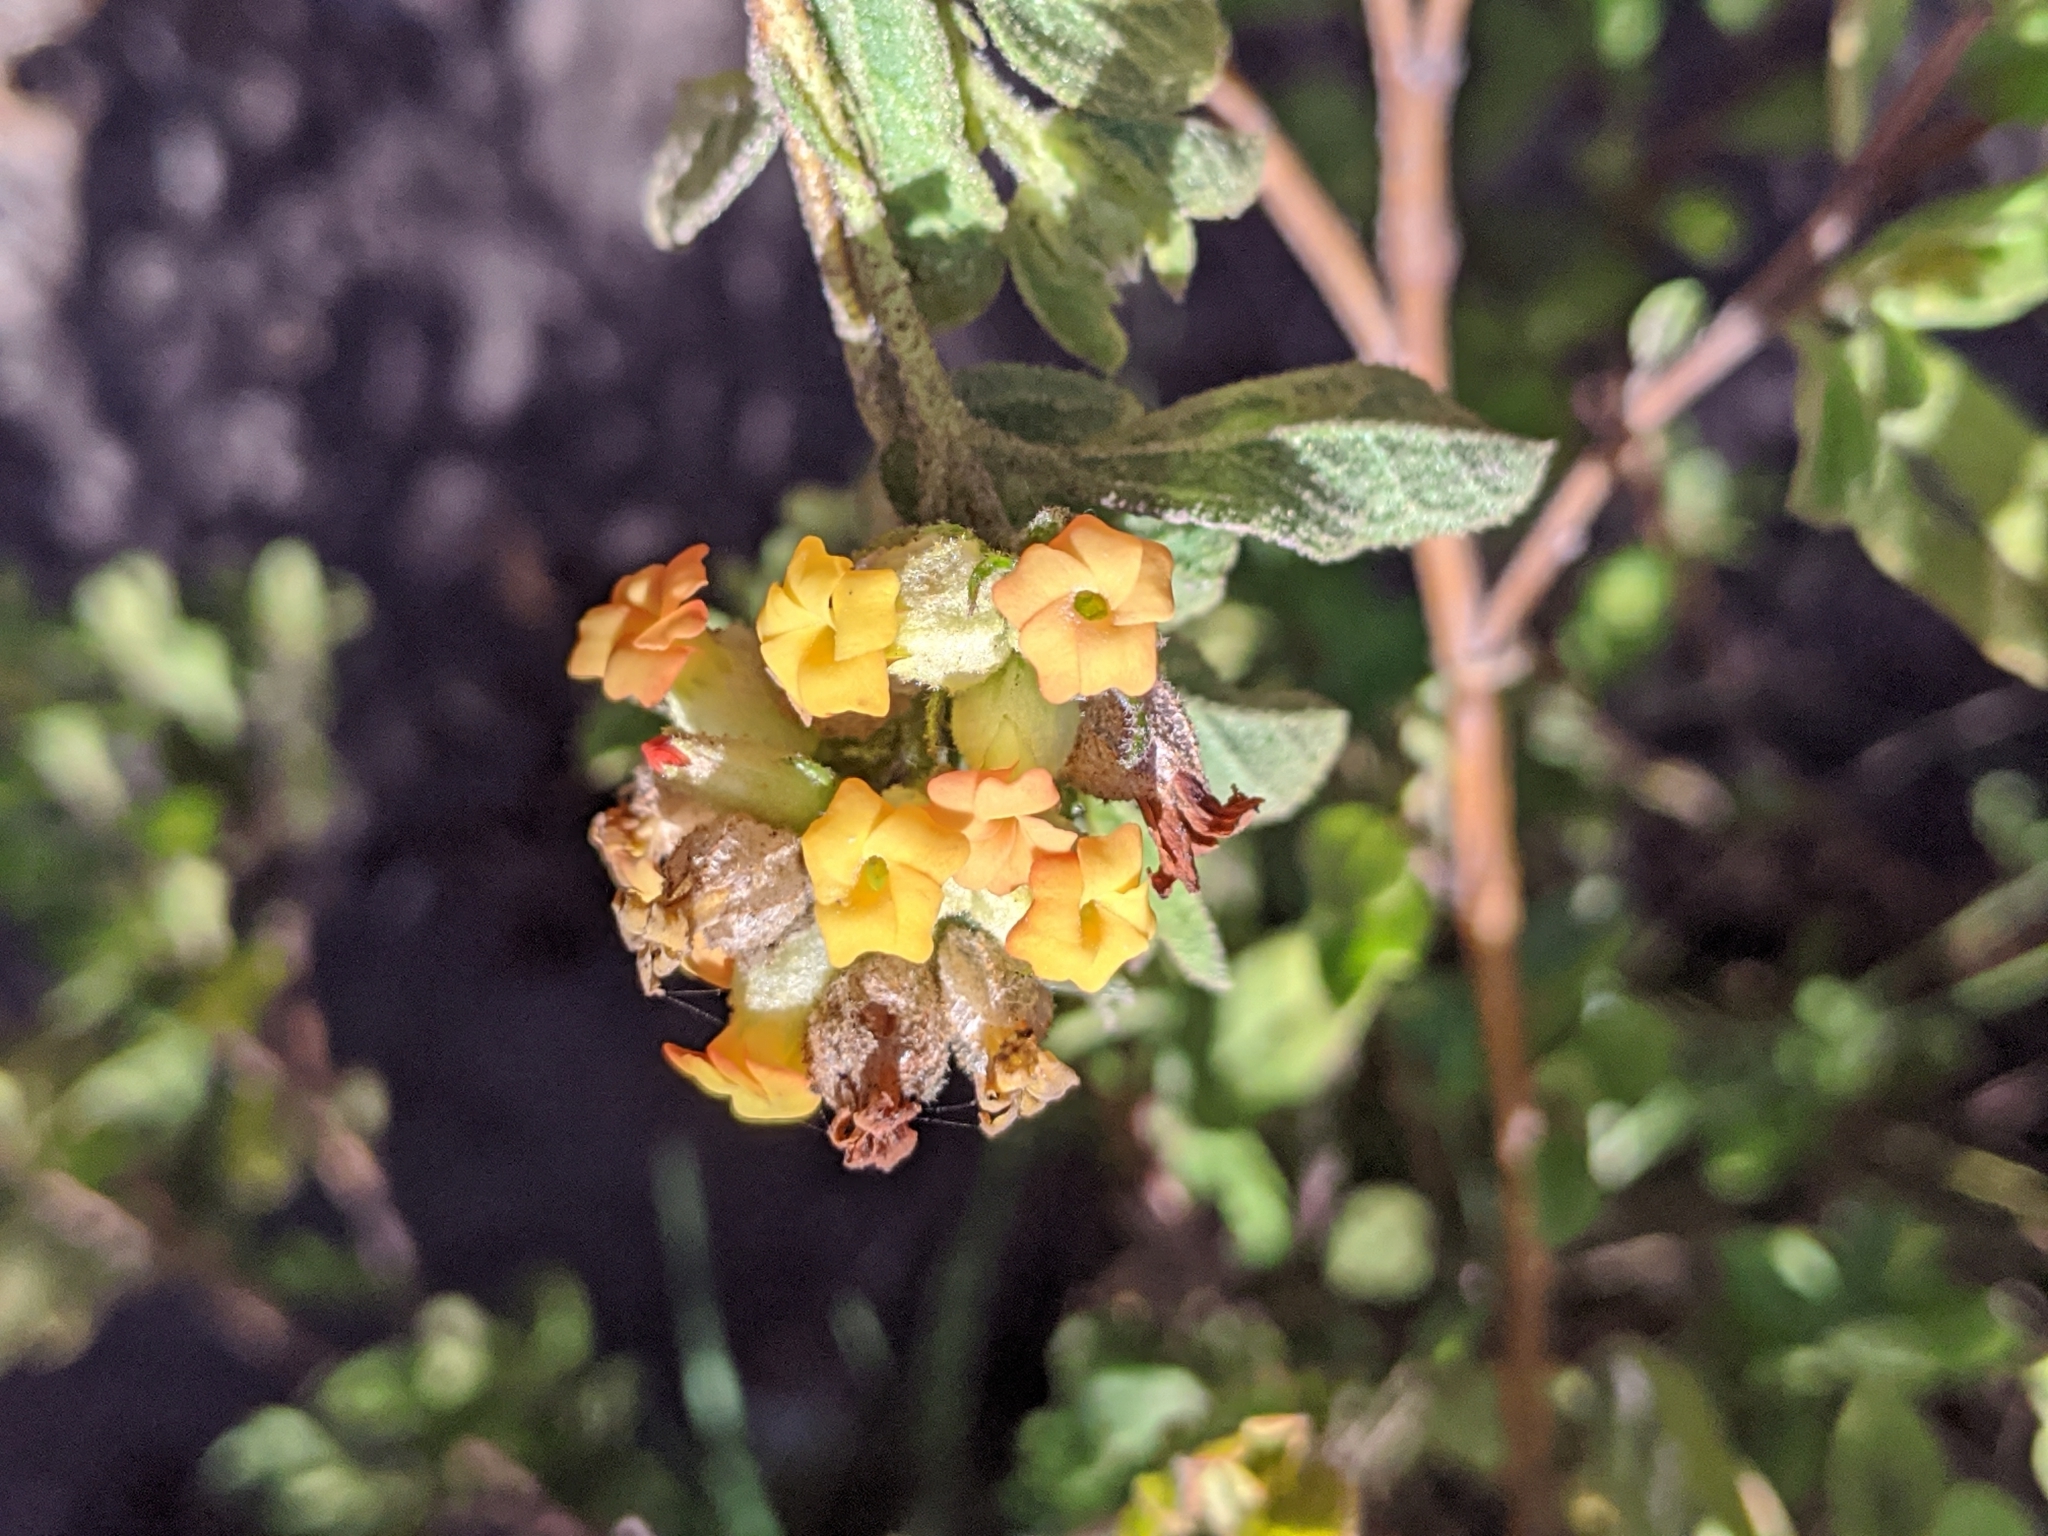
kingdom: Plantae
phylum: Tracheophyta
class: Magnoliopsida
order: Malvales
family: Malvaceae
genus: Hermannia
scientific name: Hermannia salviifolia
